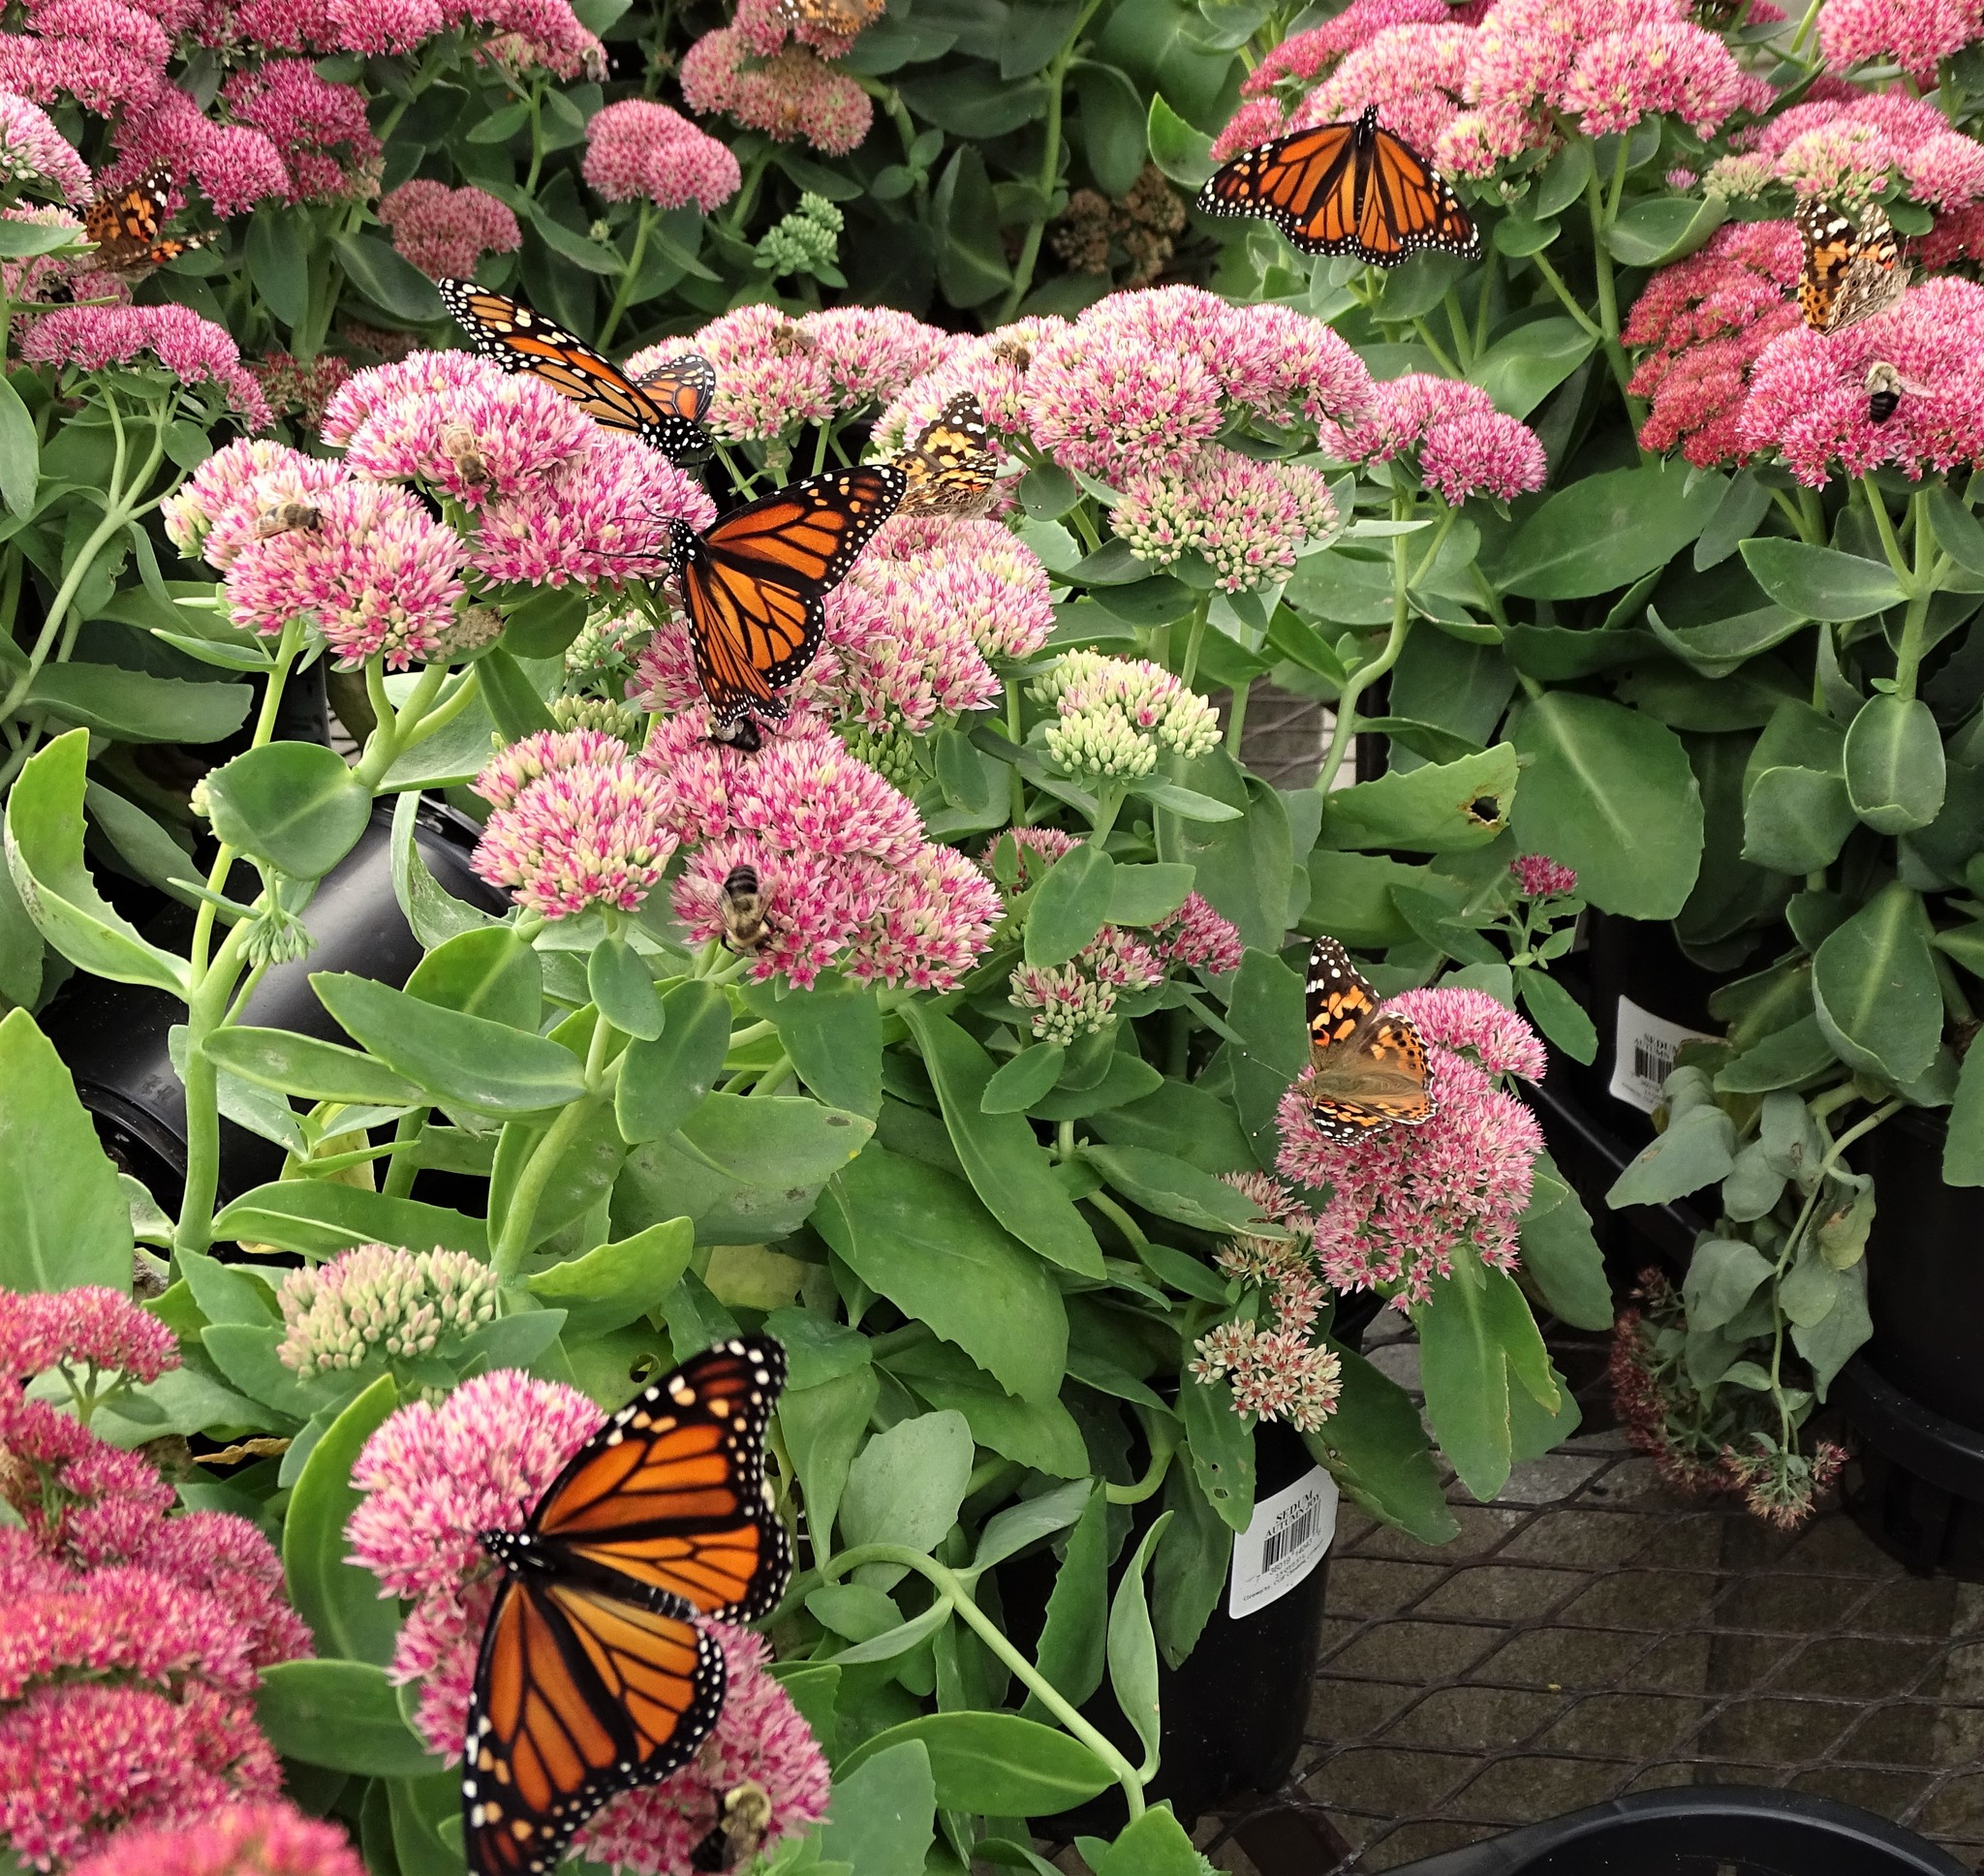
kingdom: Animalia
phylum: Arthropoda
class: Insecta
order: Lepidoptera
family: Nymphalidae
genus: Danaus
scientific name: Danaus plexippus
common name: Monarch
